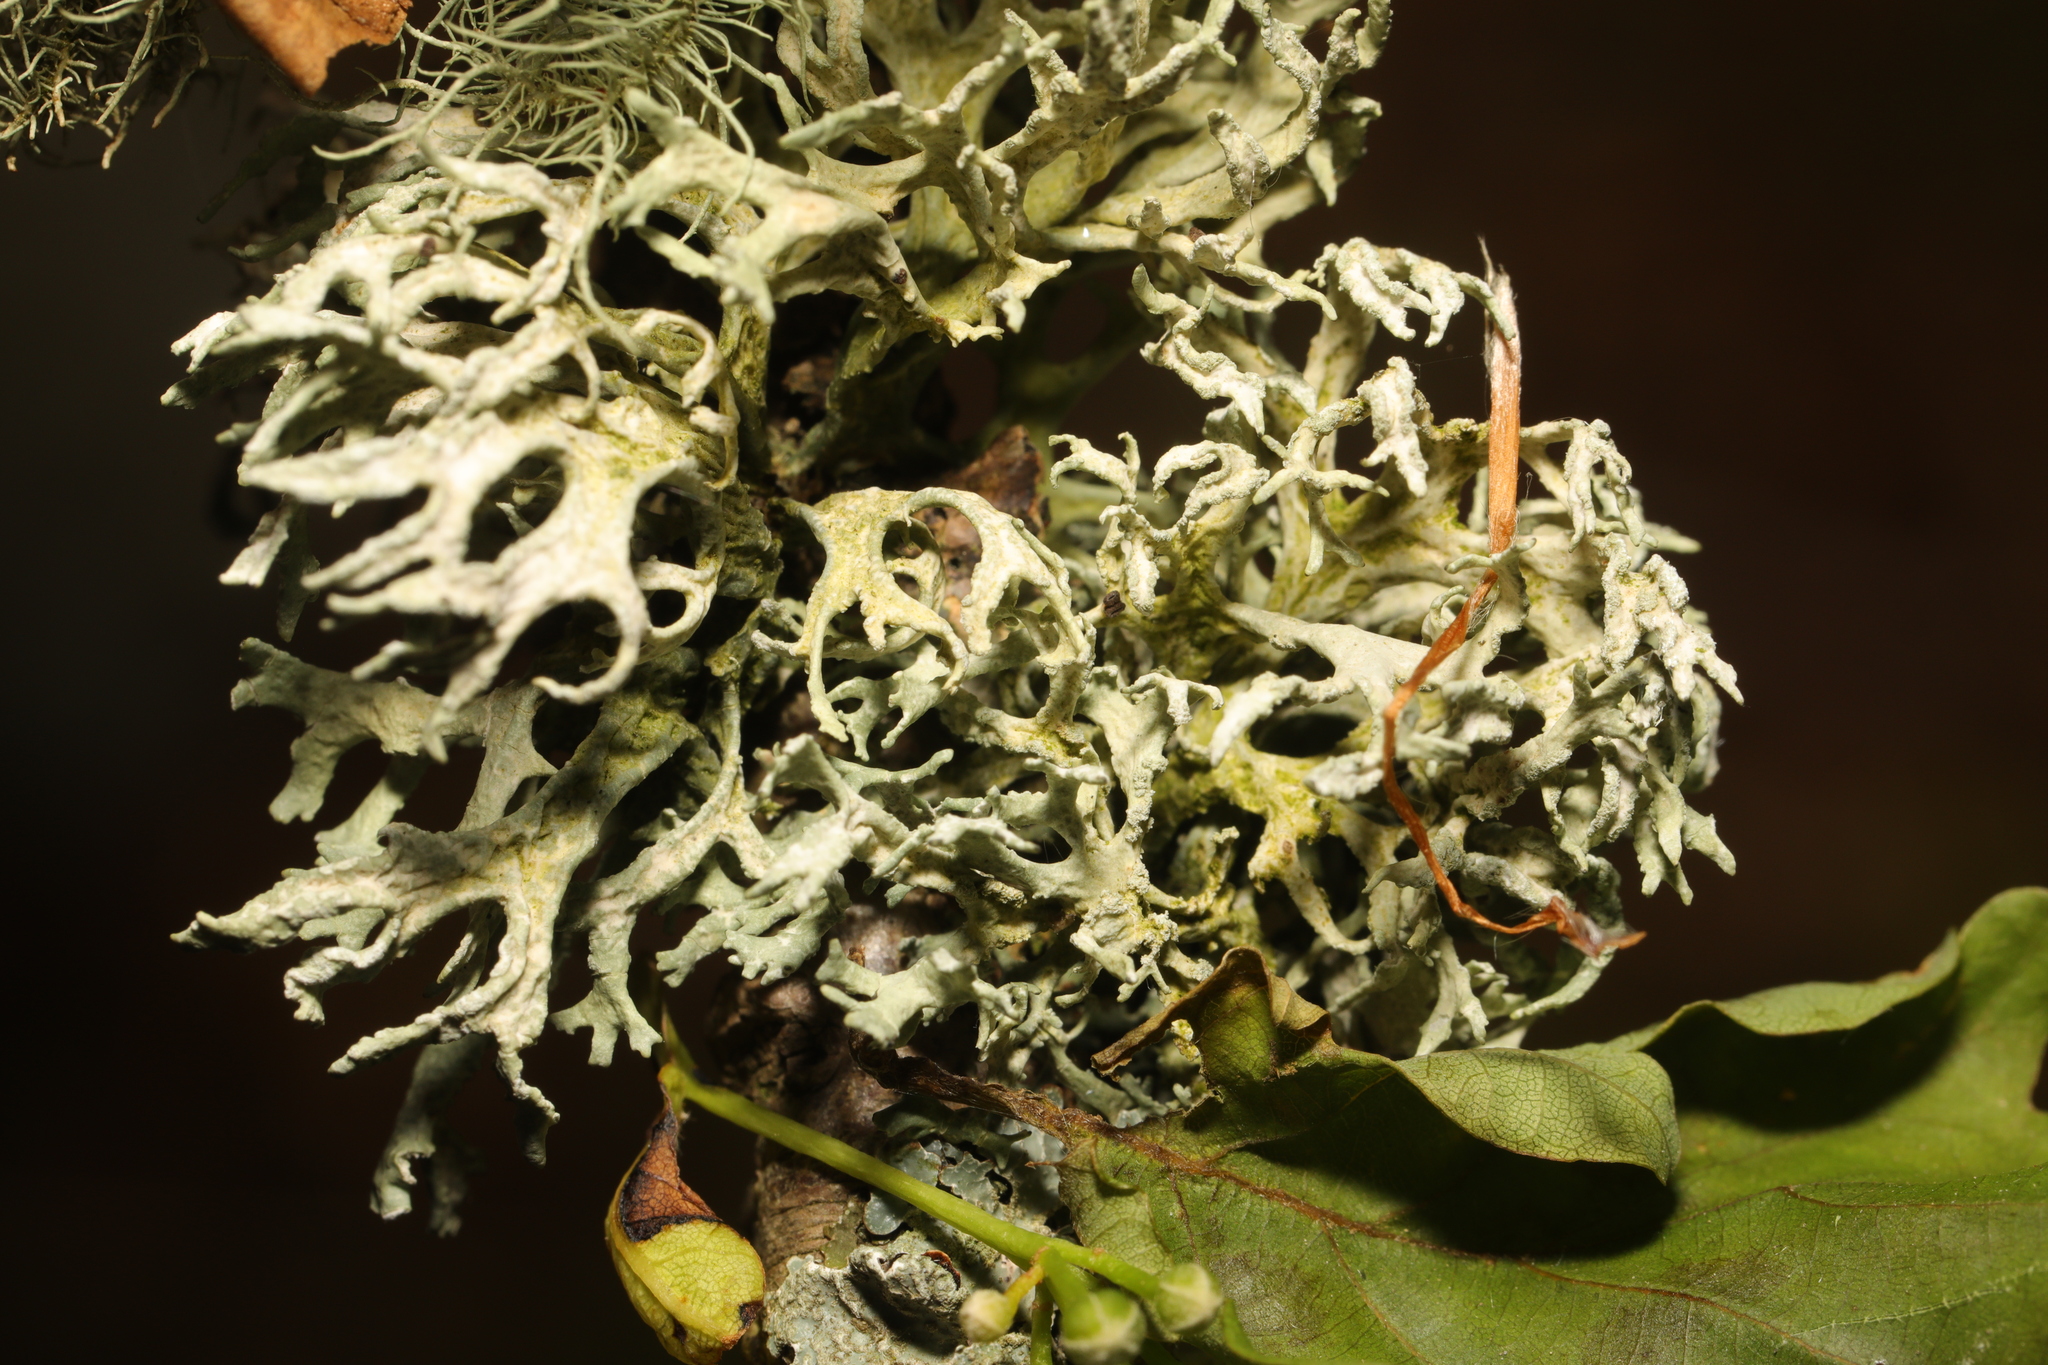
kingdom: Fungi
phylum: Ascomycota
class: Lecanoromycetes
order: Lecanorales
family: Parmeliaceae
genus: Evernia
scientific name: Evernia prunastri
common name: Oak moss
